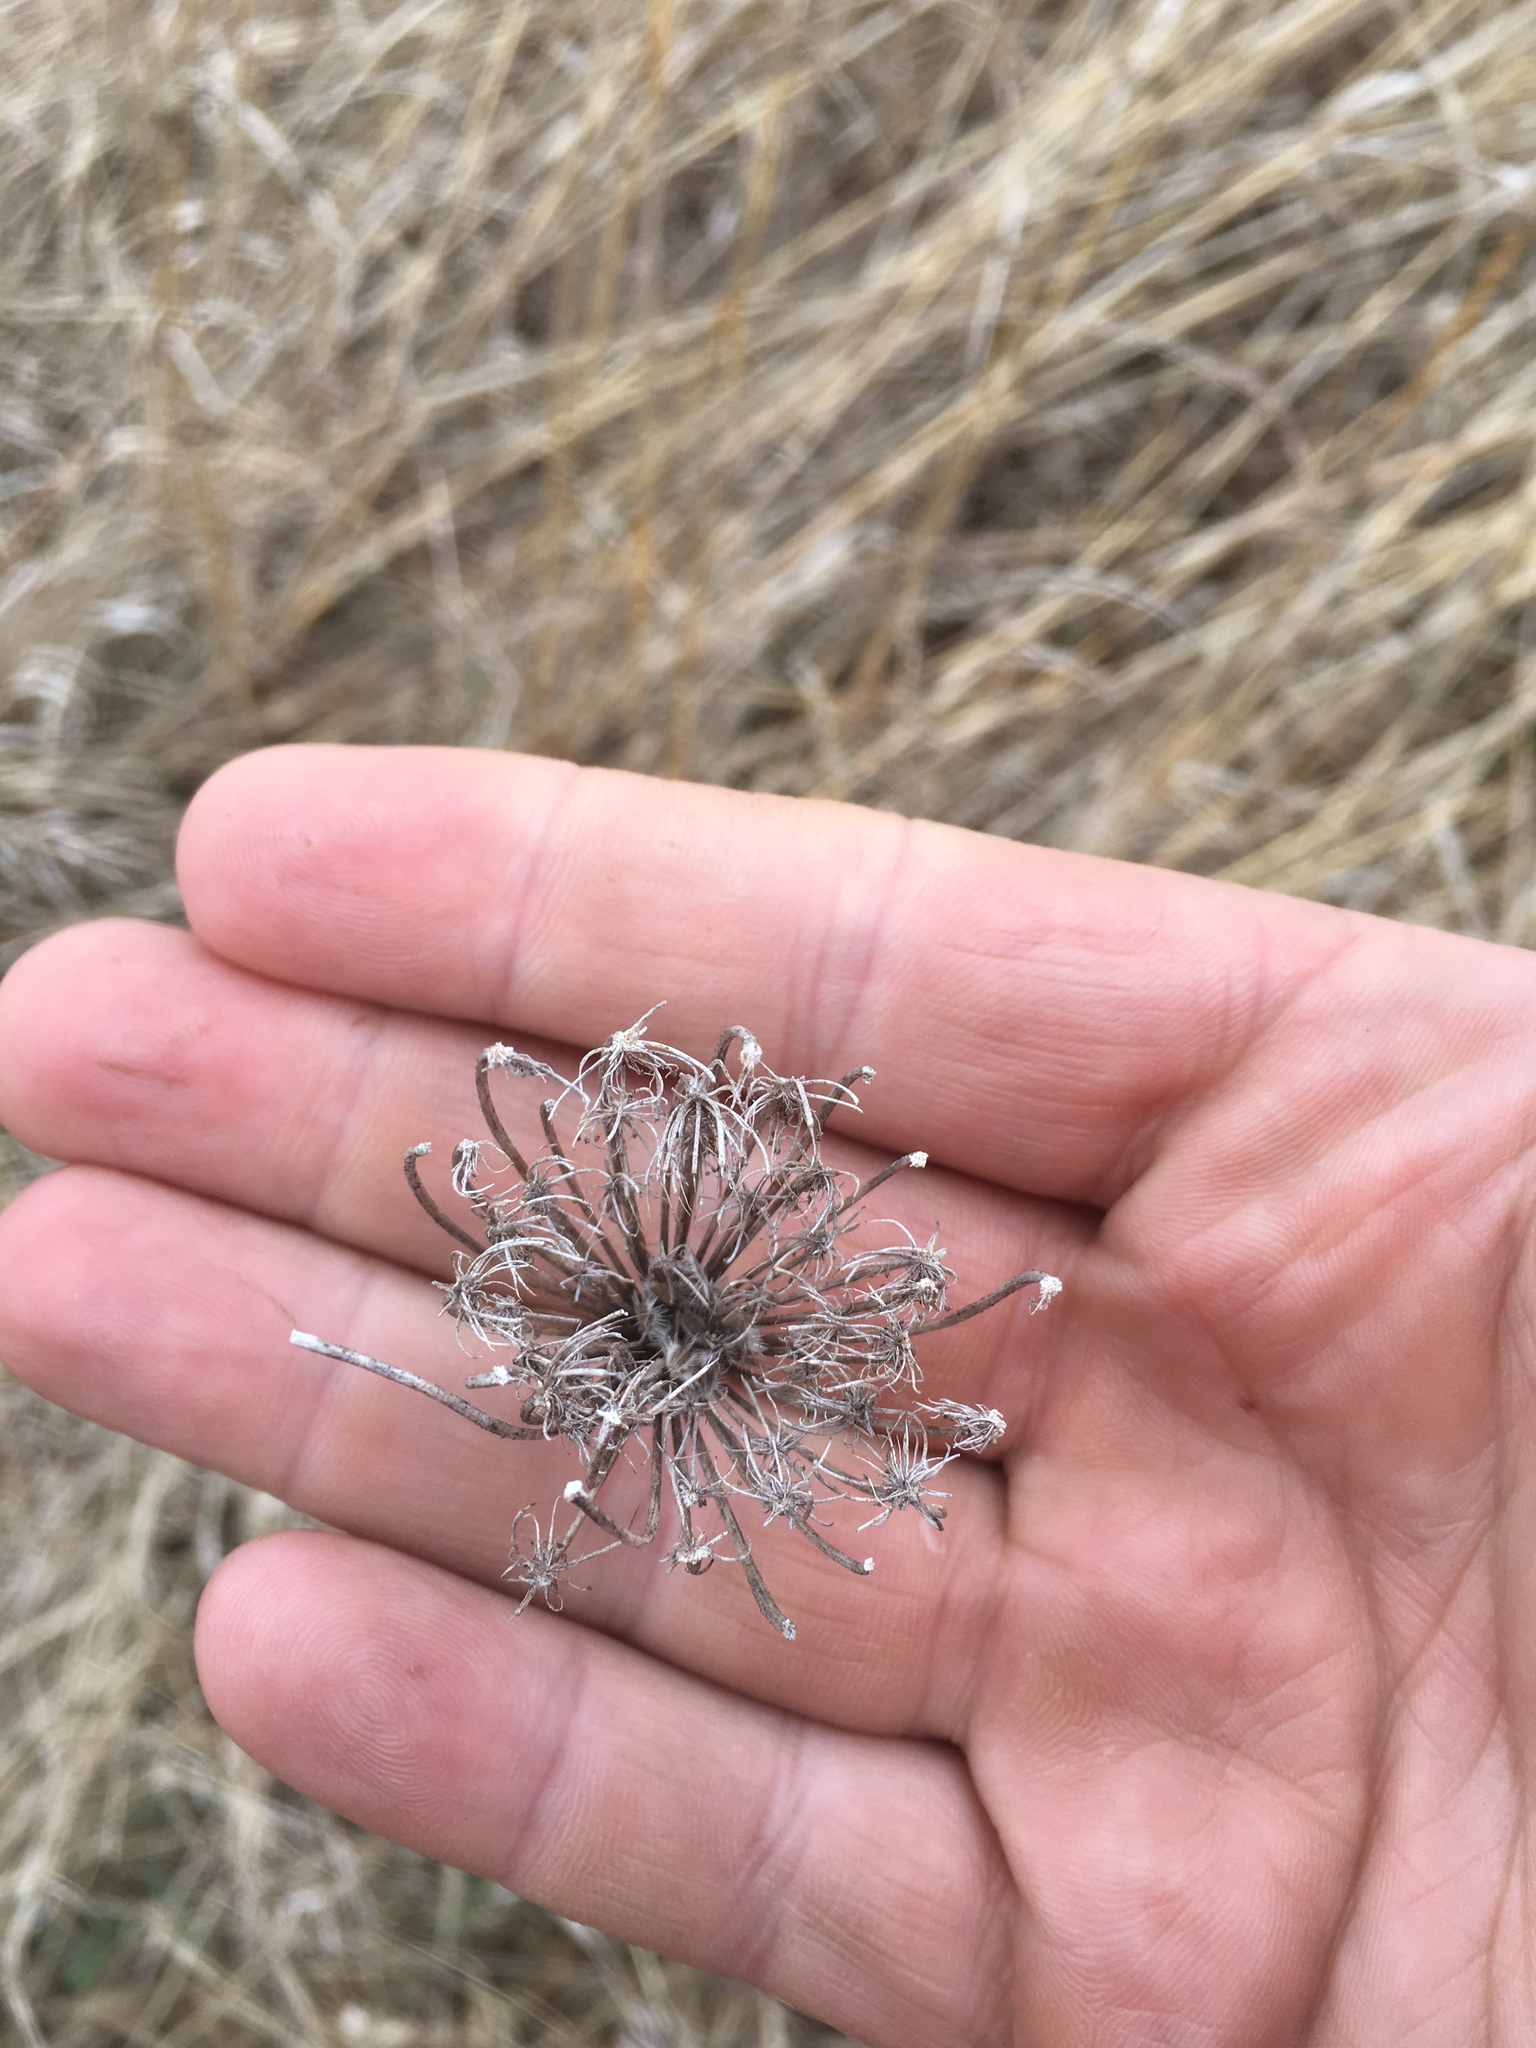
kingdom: Plantae
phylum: Tracheophyta
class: Magnoliopsida
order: Apiales
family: Apiaceae
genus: Daucus
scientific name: Daucus carota
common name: Wild carrot
